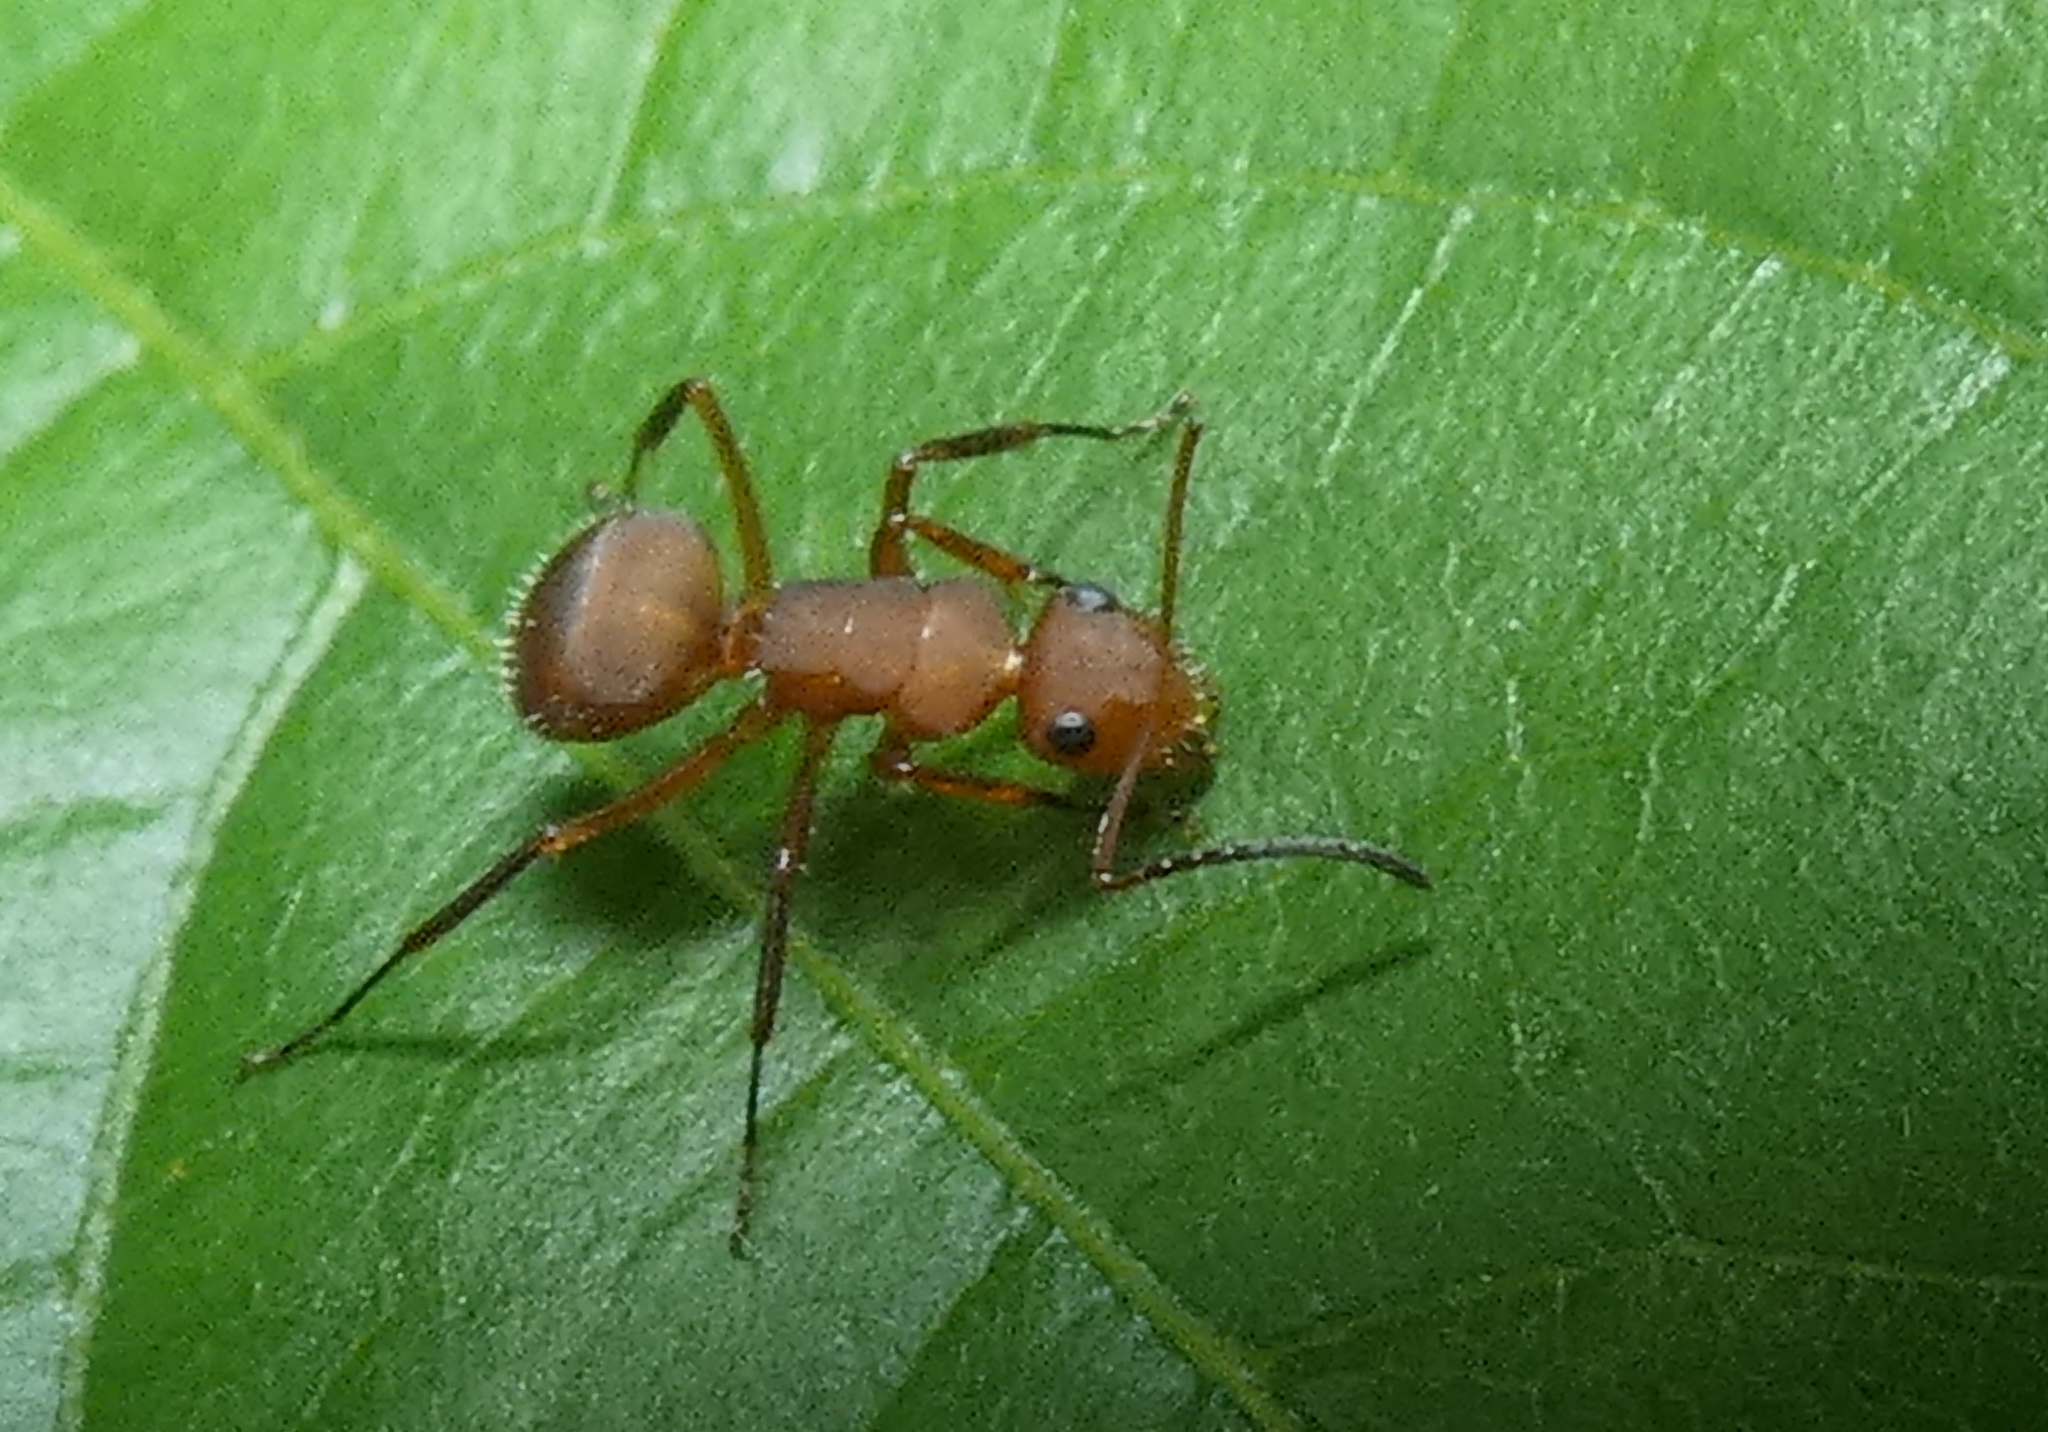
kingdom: Animalia
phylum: Arthropoda
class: Insecta
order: Hymenoptera
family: Formicidae
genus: Camponotus
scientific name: Camponotus rectangularis
